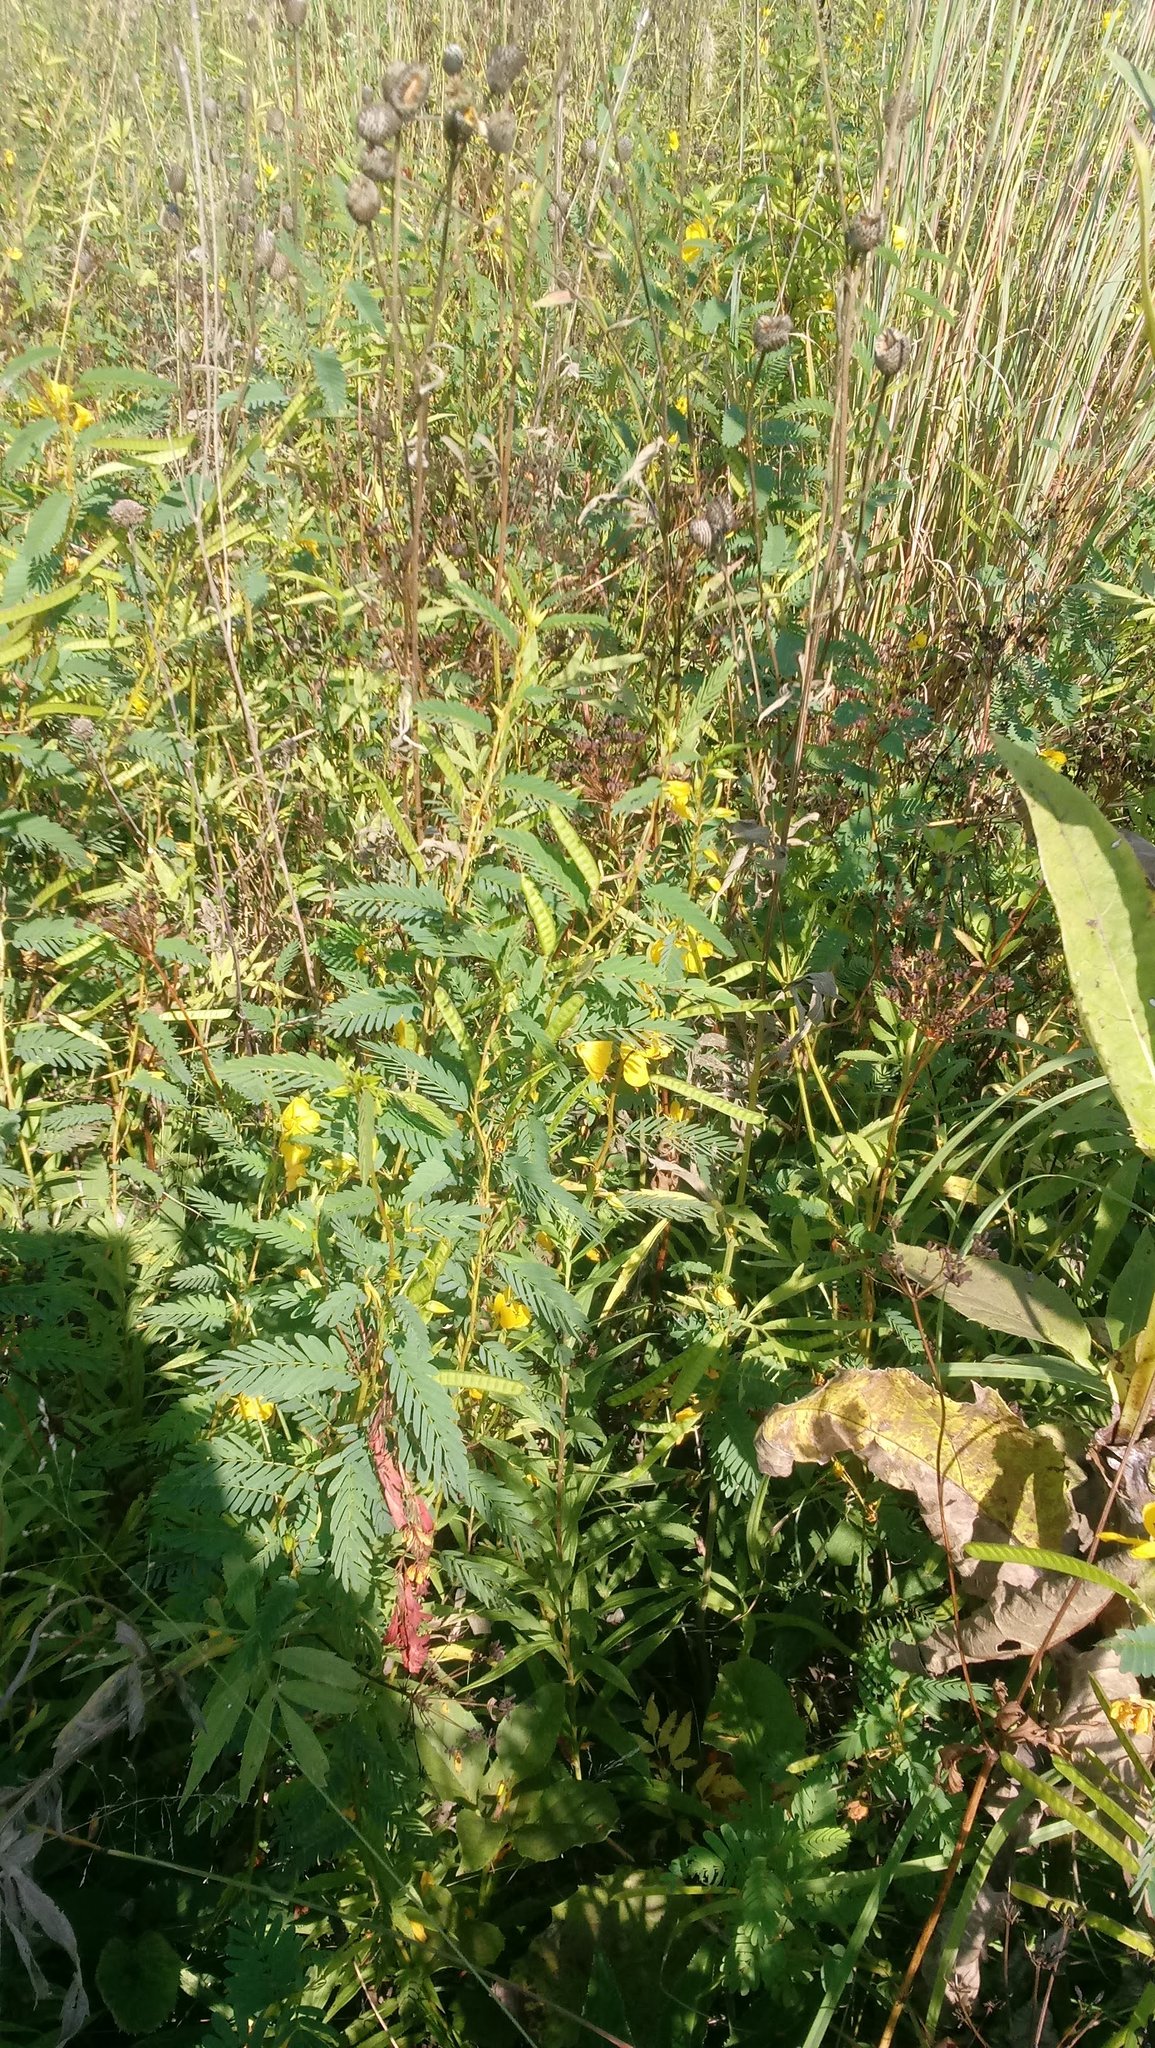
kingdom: Plantae
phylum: Tracheophyta
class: Magnoliopsida
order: Fabales
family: Fabaceae
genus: Chamaecrista
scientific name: Chamaecrista fasciculata
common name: Golden cassia
